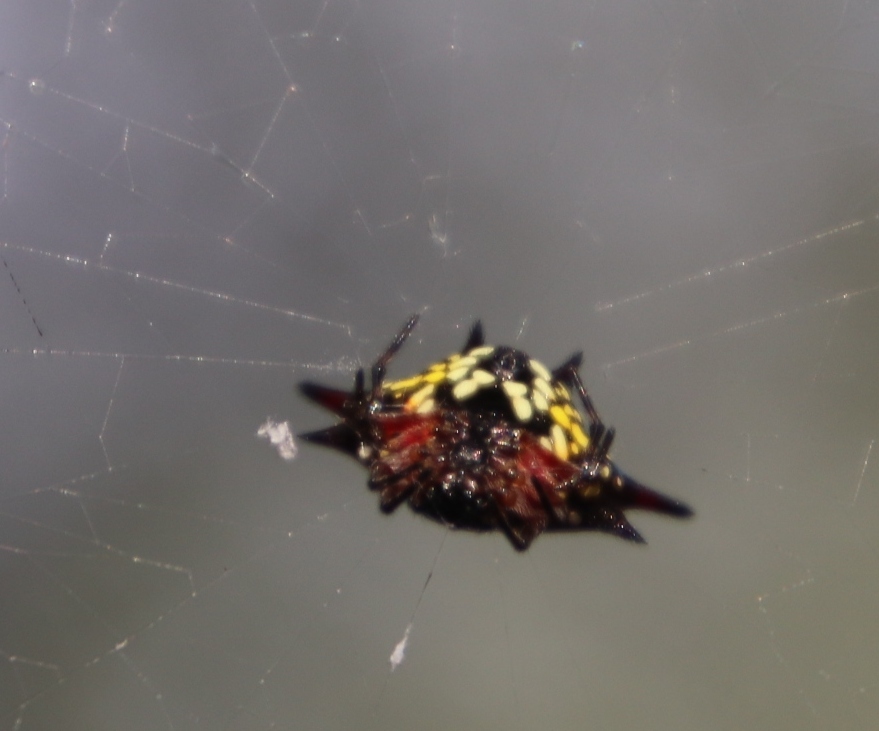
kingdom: Animalia
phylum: Arthropoda
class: Arachnida
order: Araneae
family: Araneidae
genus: Gasteracantha
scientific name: Gasteracantha sanguinolenta
